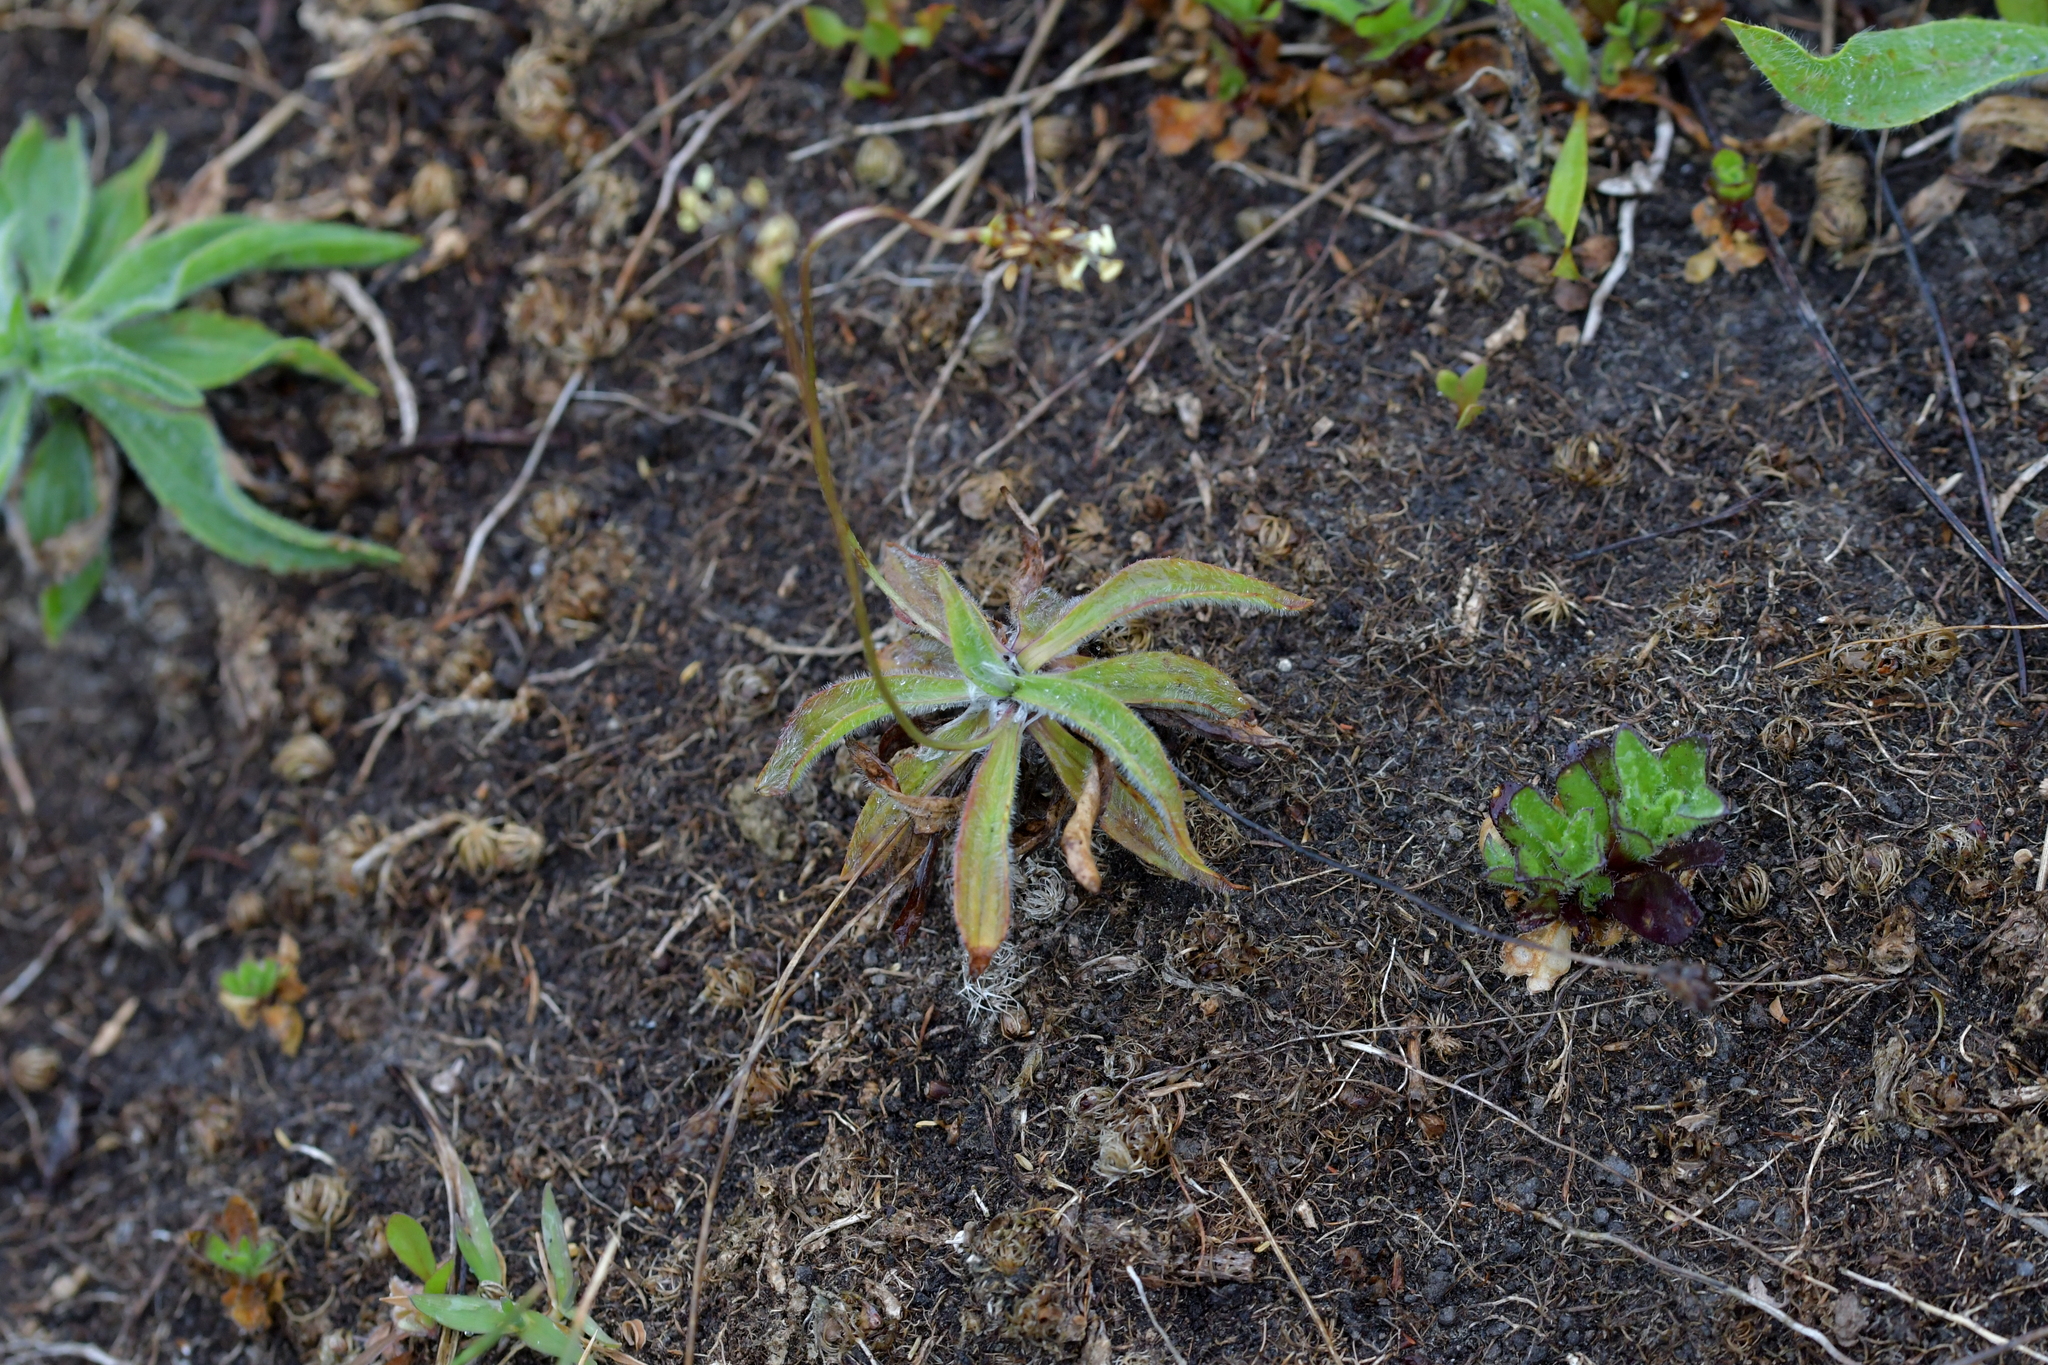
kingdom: Plantae
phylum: Tracheophyta
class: Magnoliopsida
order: Lamiales
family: Plantaginaceae
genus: Plantago
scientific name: Plantago lanceolata
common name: Ribwort plantain
